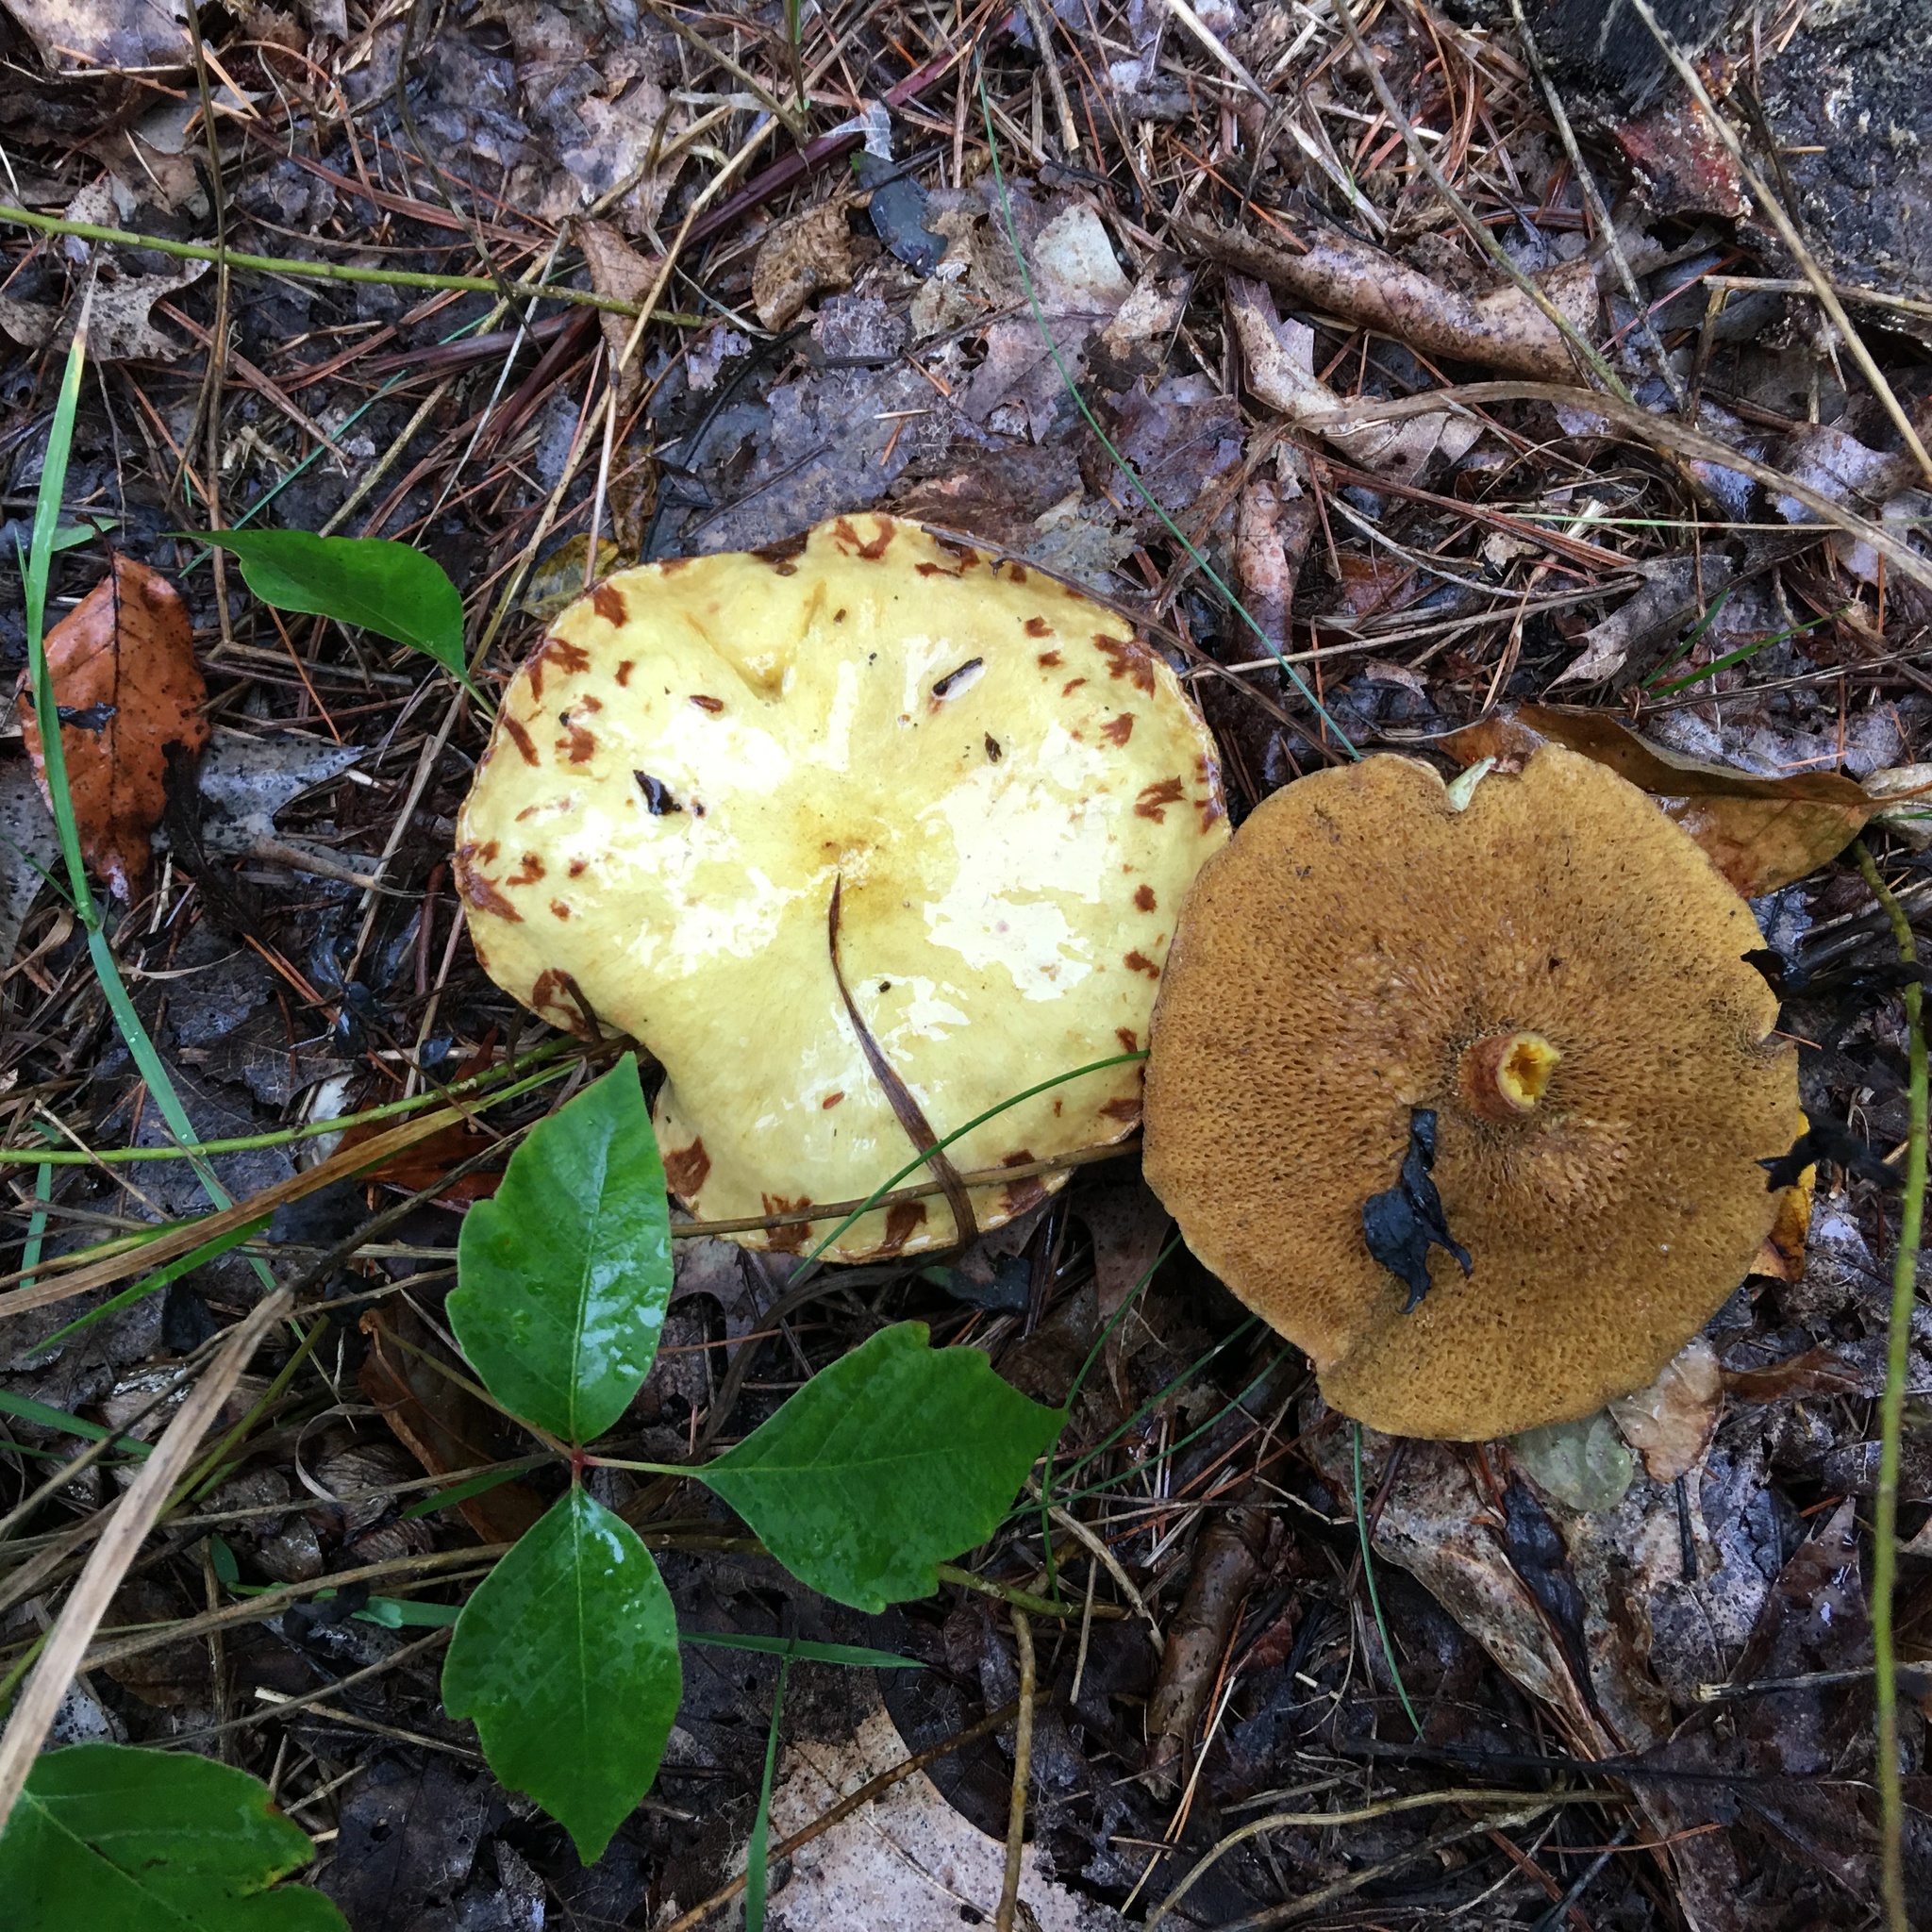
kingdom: Fungi
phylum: Basidiomycota
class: Agaricomycetes
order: Boletales
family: Suillaceae
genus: Suillus
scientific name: Suillus americanus
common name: Chicken fat mushroom
